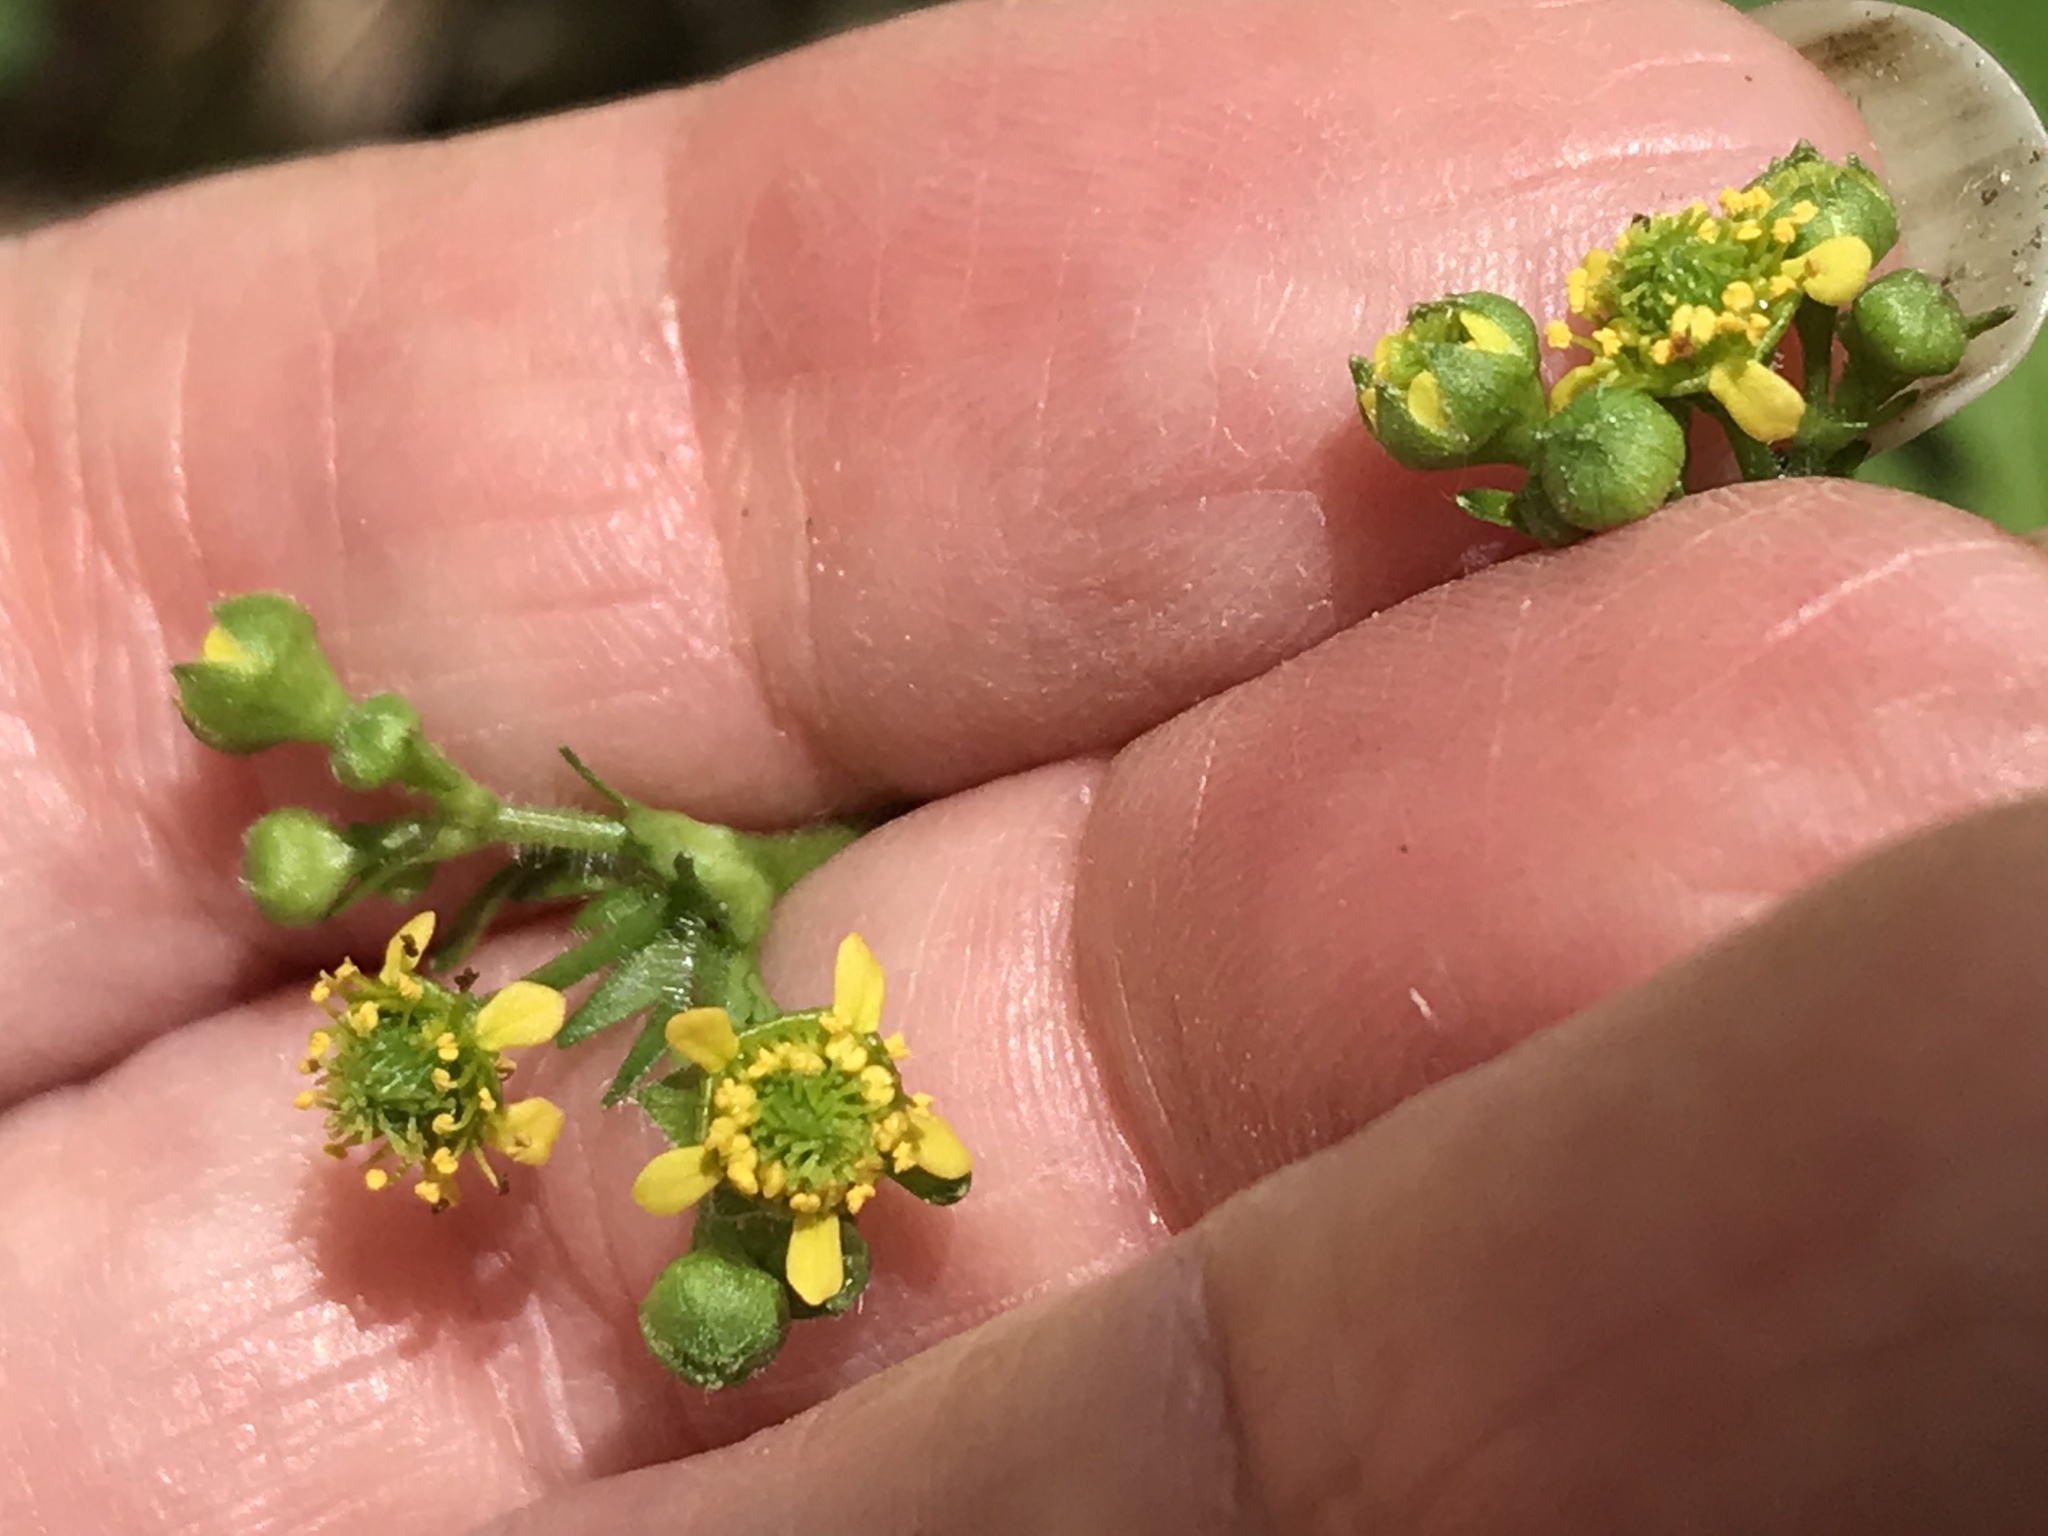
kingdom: Plantae
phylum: Tracheophyta
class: Magnoliopsida
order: Rosales
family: Rosaceae
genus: Geum
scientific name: Geum vernum
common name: Spring avens
